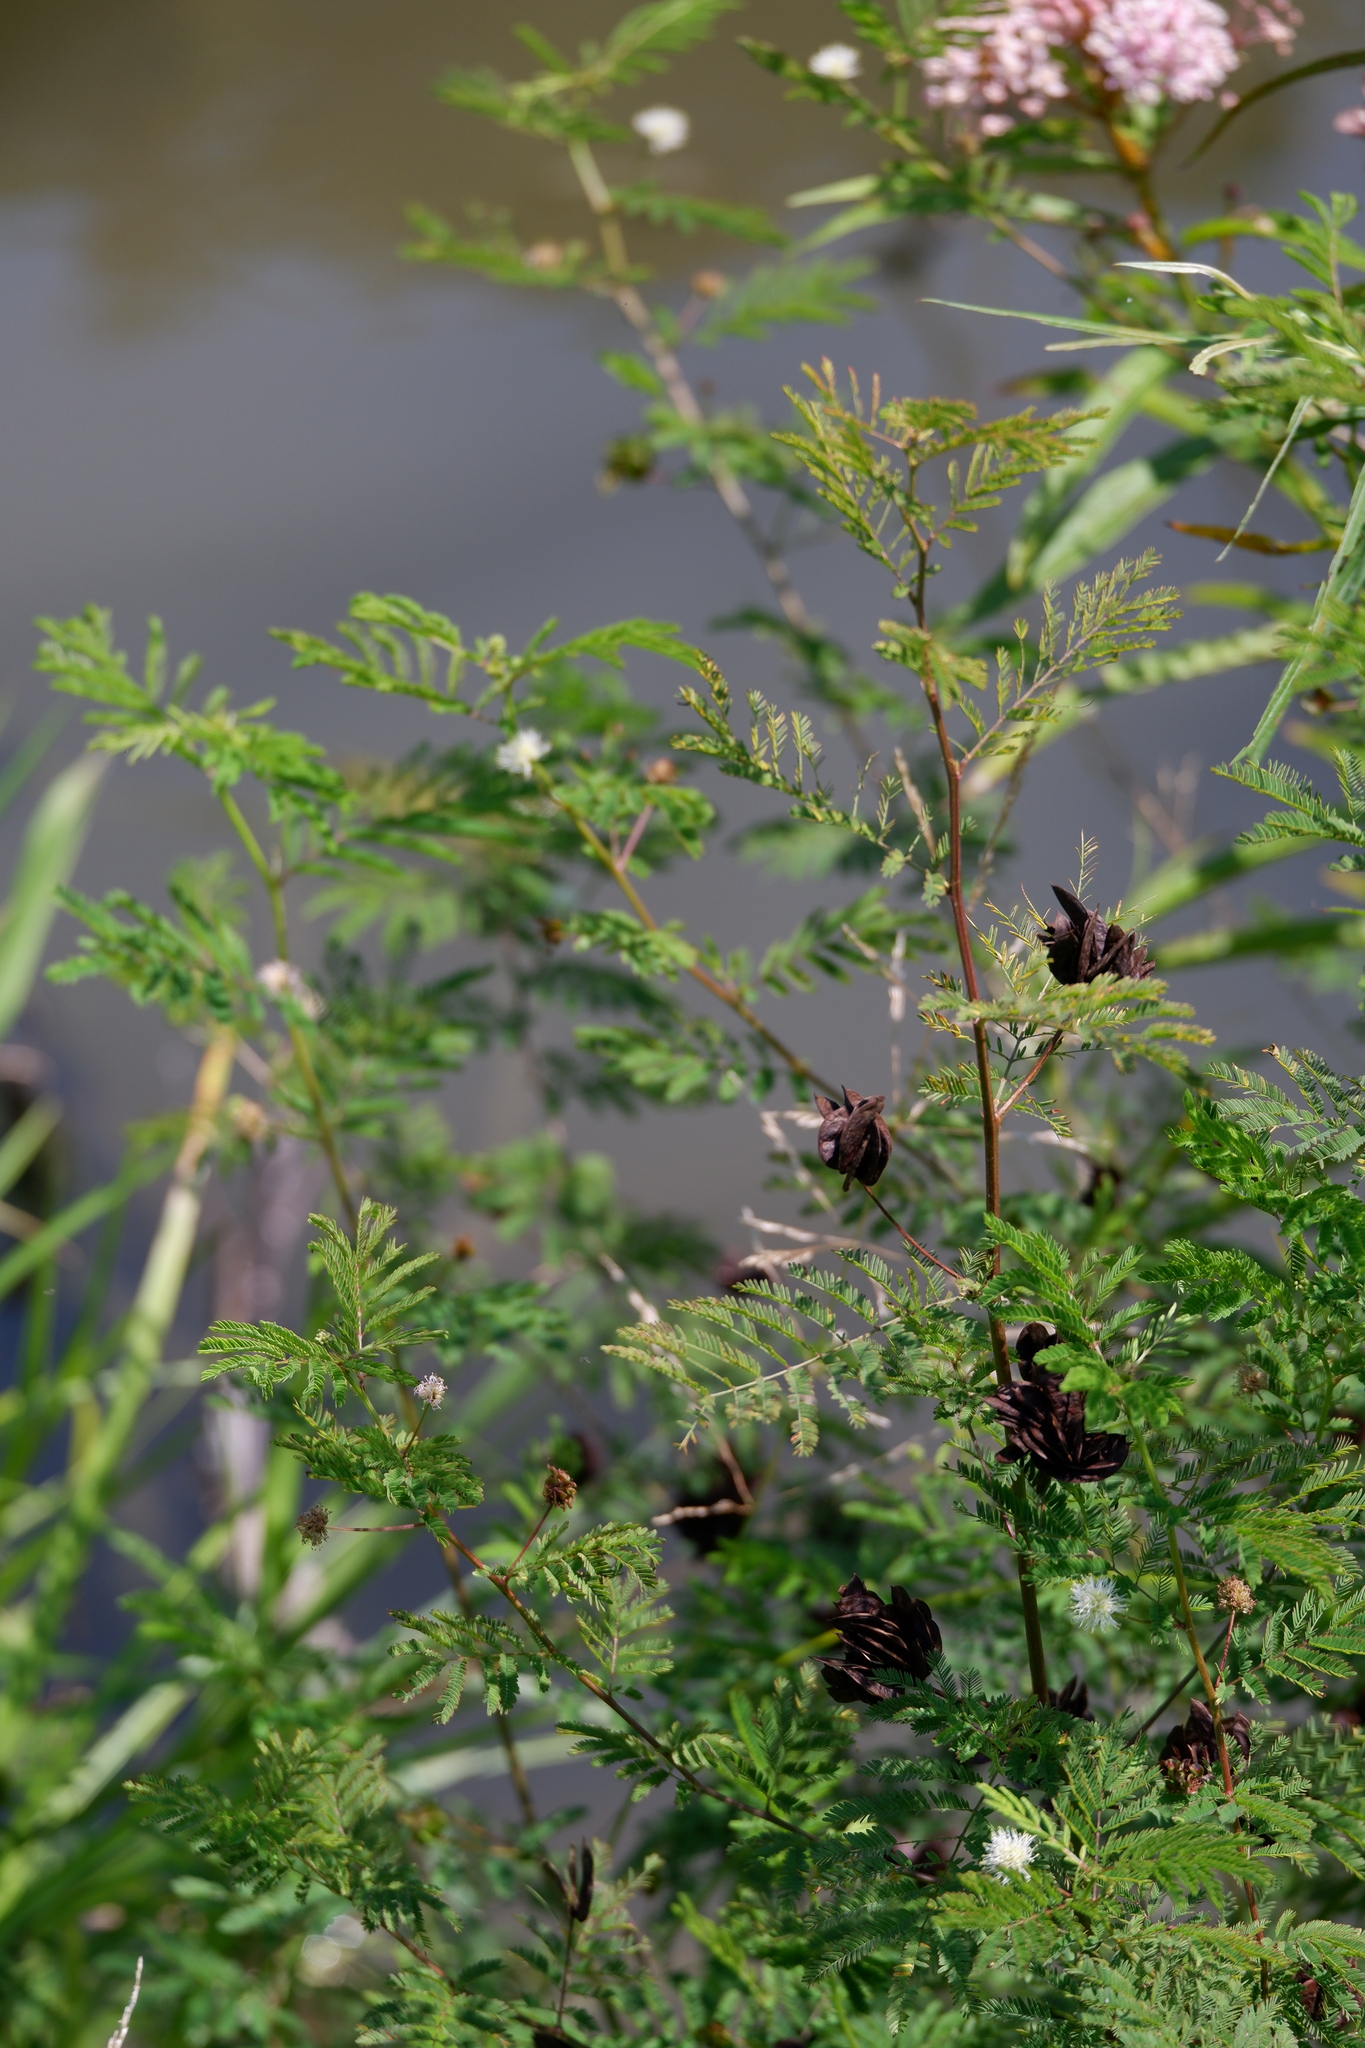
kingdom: Plantae
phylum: Tracheophyta
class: Magnoliopsida
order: Fabales
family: Fabaceae
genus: Desmanthus
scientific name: Desmanthus illinoensis
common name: Illinois bundle-flower
